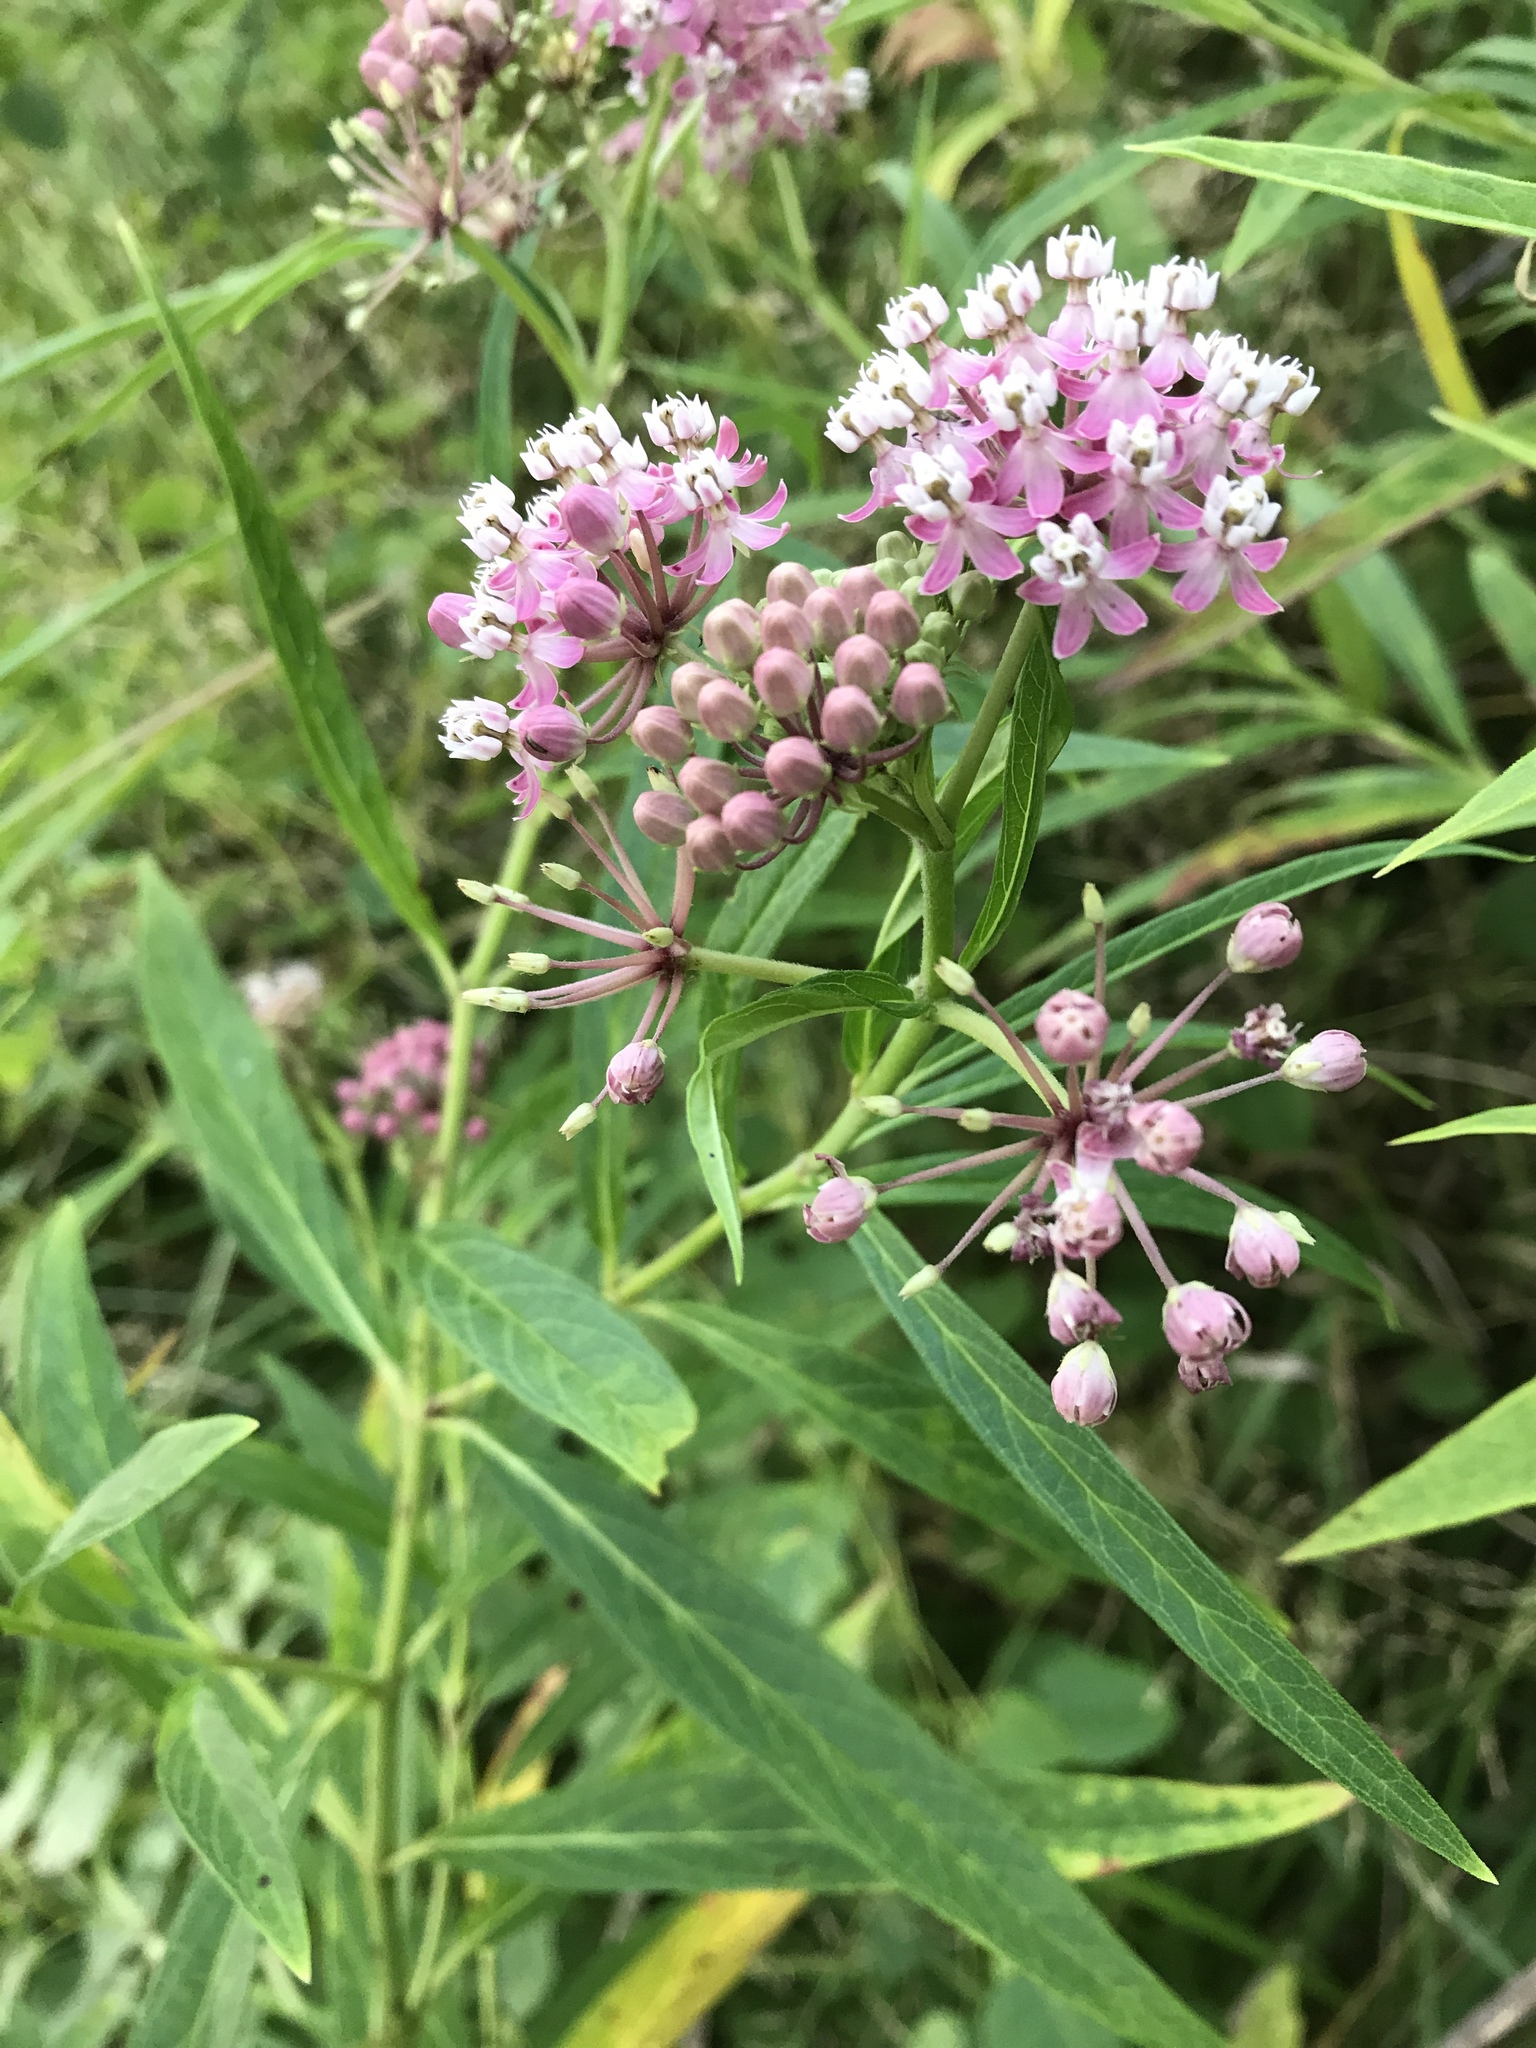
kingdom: Plantae
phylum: Tracheophyta
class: Magnoliopsida
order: Gentianales
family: Apocynaceae
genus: Asclepias
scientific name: Asclepias incarnata
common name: Swamp milkweed
